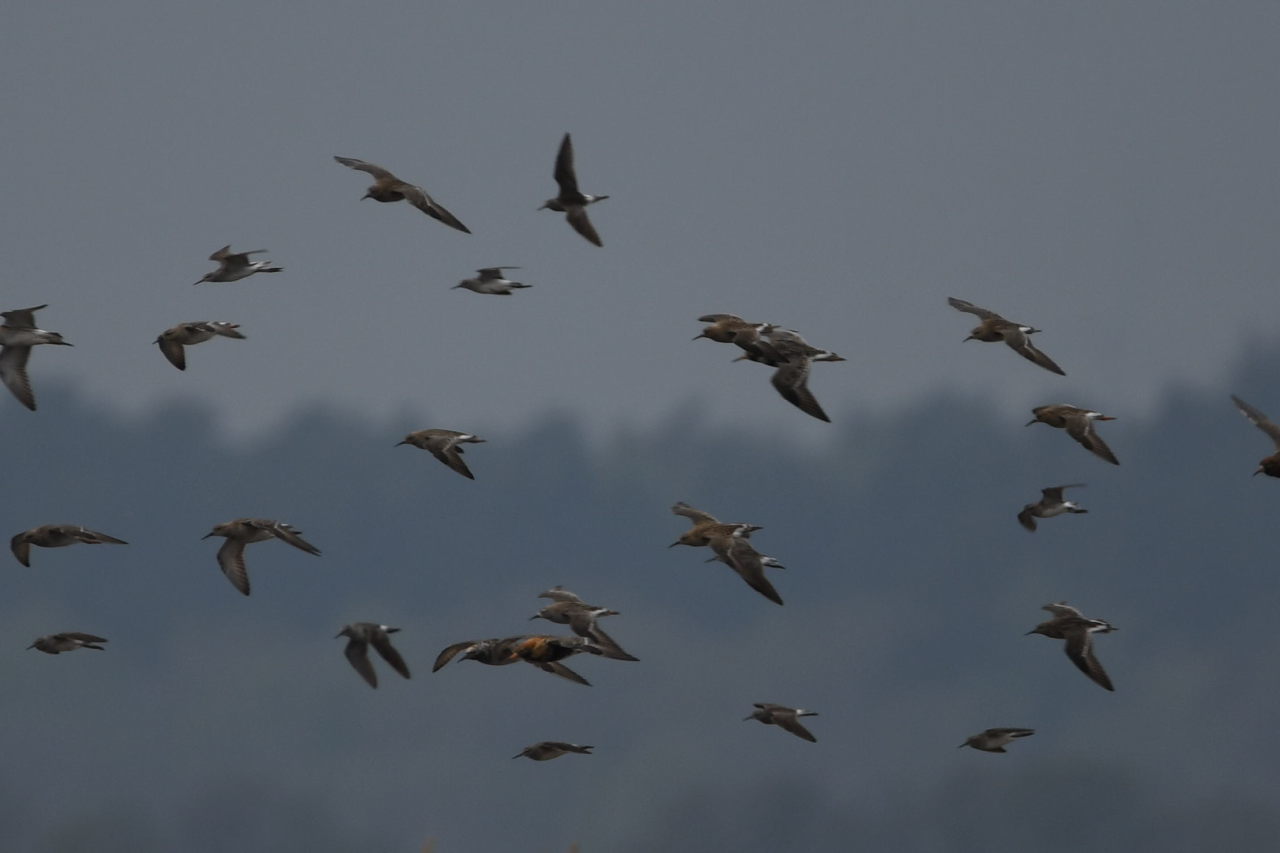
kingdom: Animalia
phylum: Chordata
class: Aves
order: Charadriiformes
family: Scolopacidae
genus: Calidris
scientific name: Calidris pugnax
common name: Ruff
